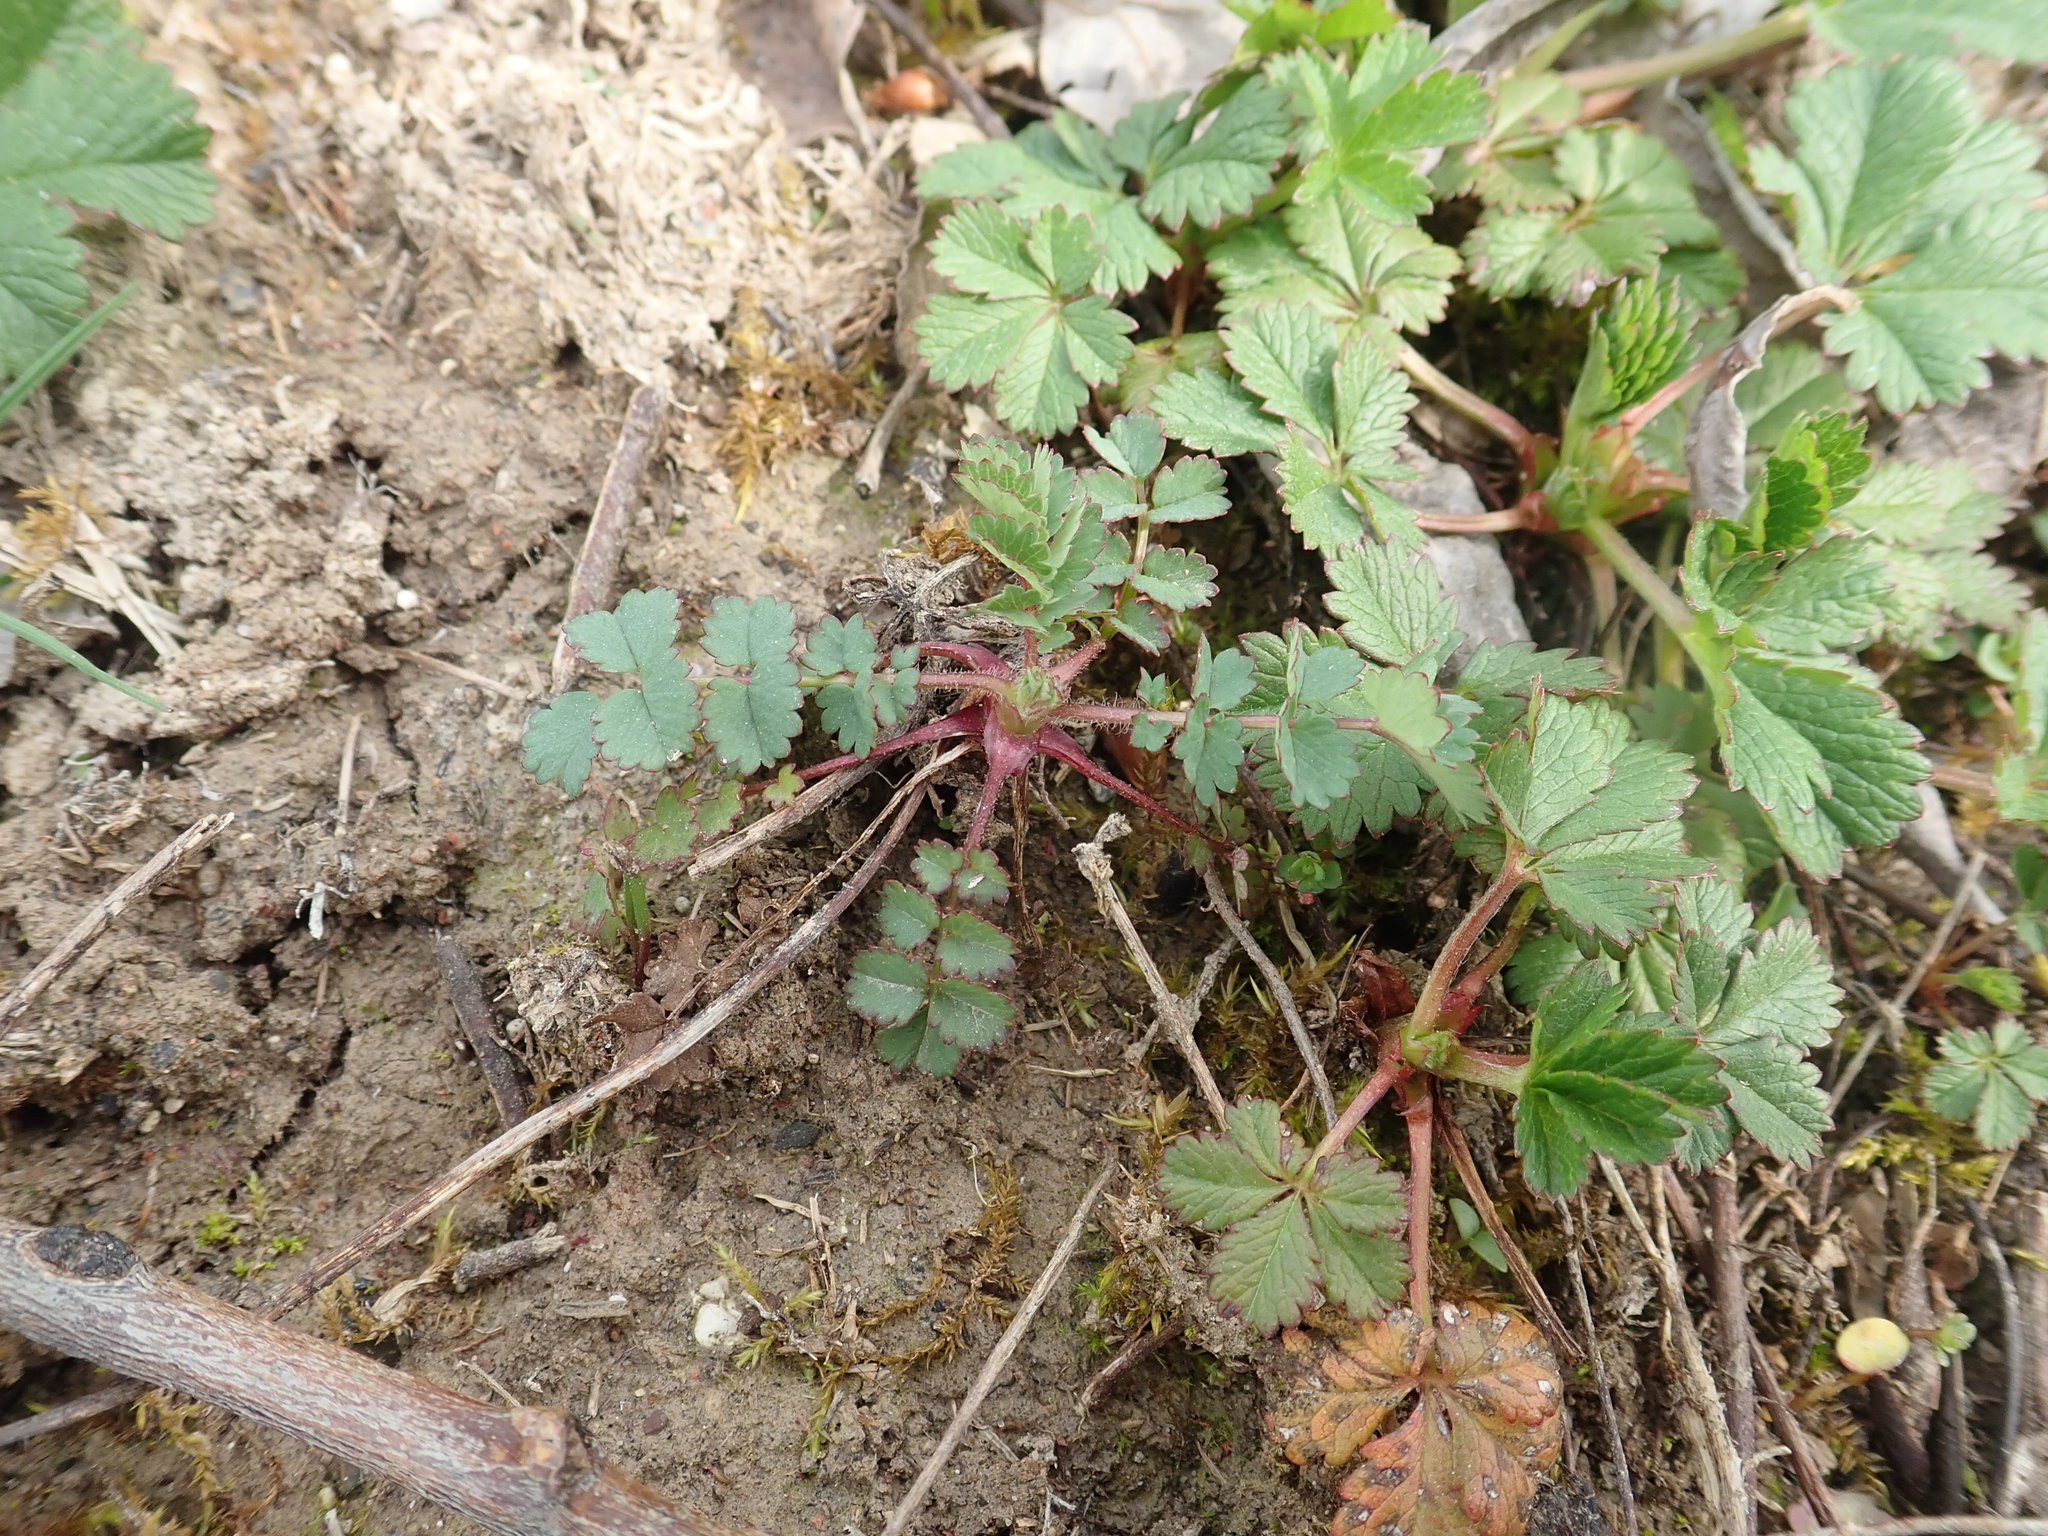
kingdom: Plantae
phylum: Tracheophyta
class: Magnoliopsida
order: Rosales
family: Rosaceae
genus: Poterium
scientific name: Poterium sanguisorba
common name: Salad burnet
